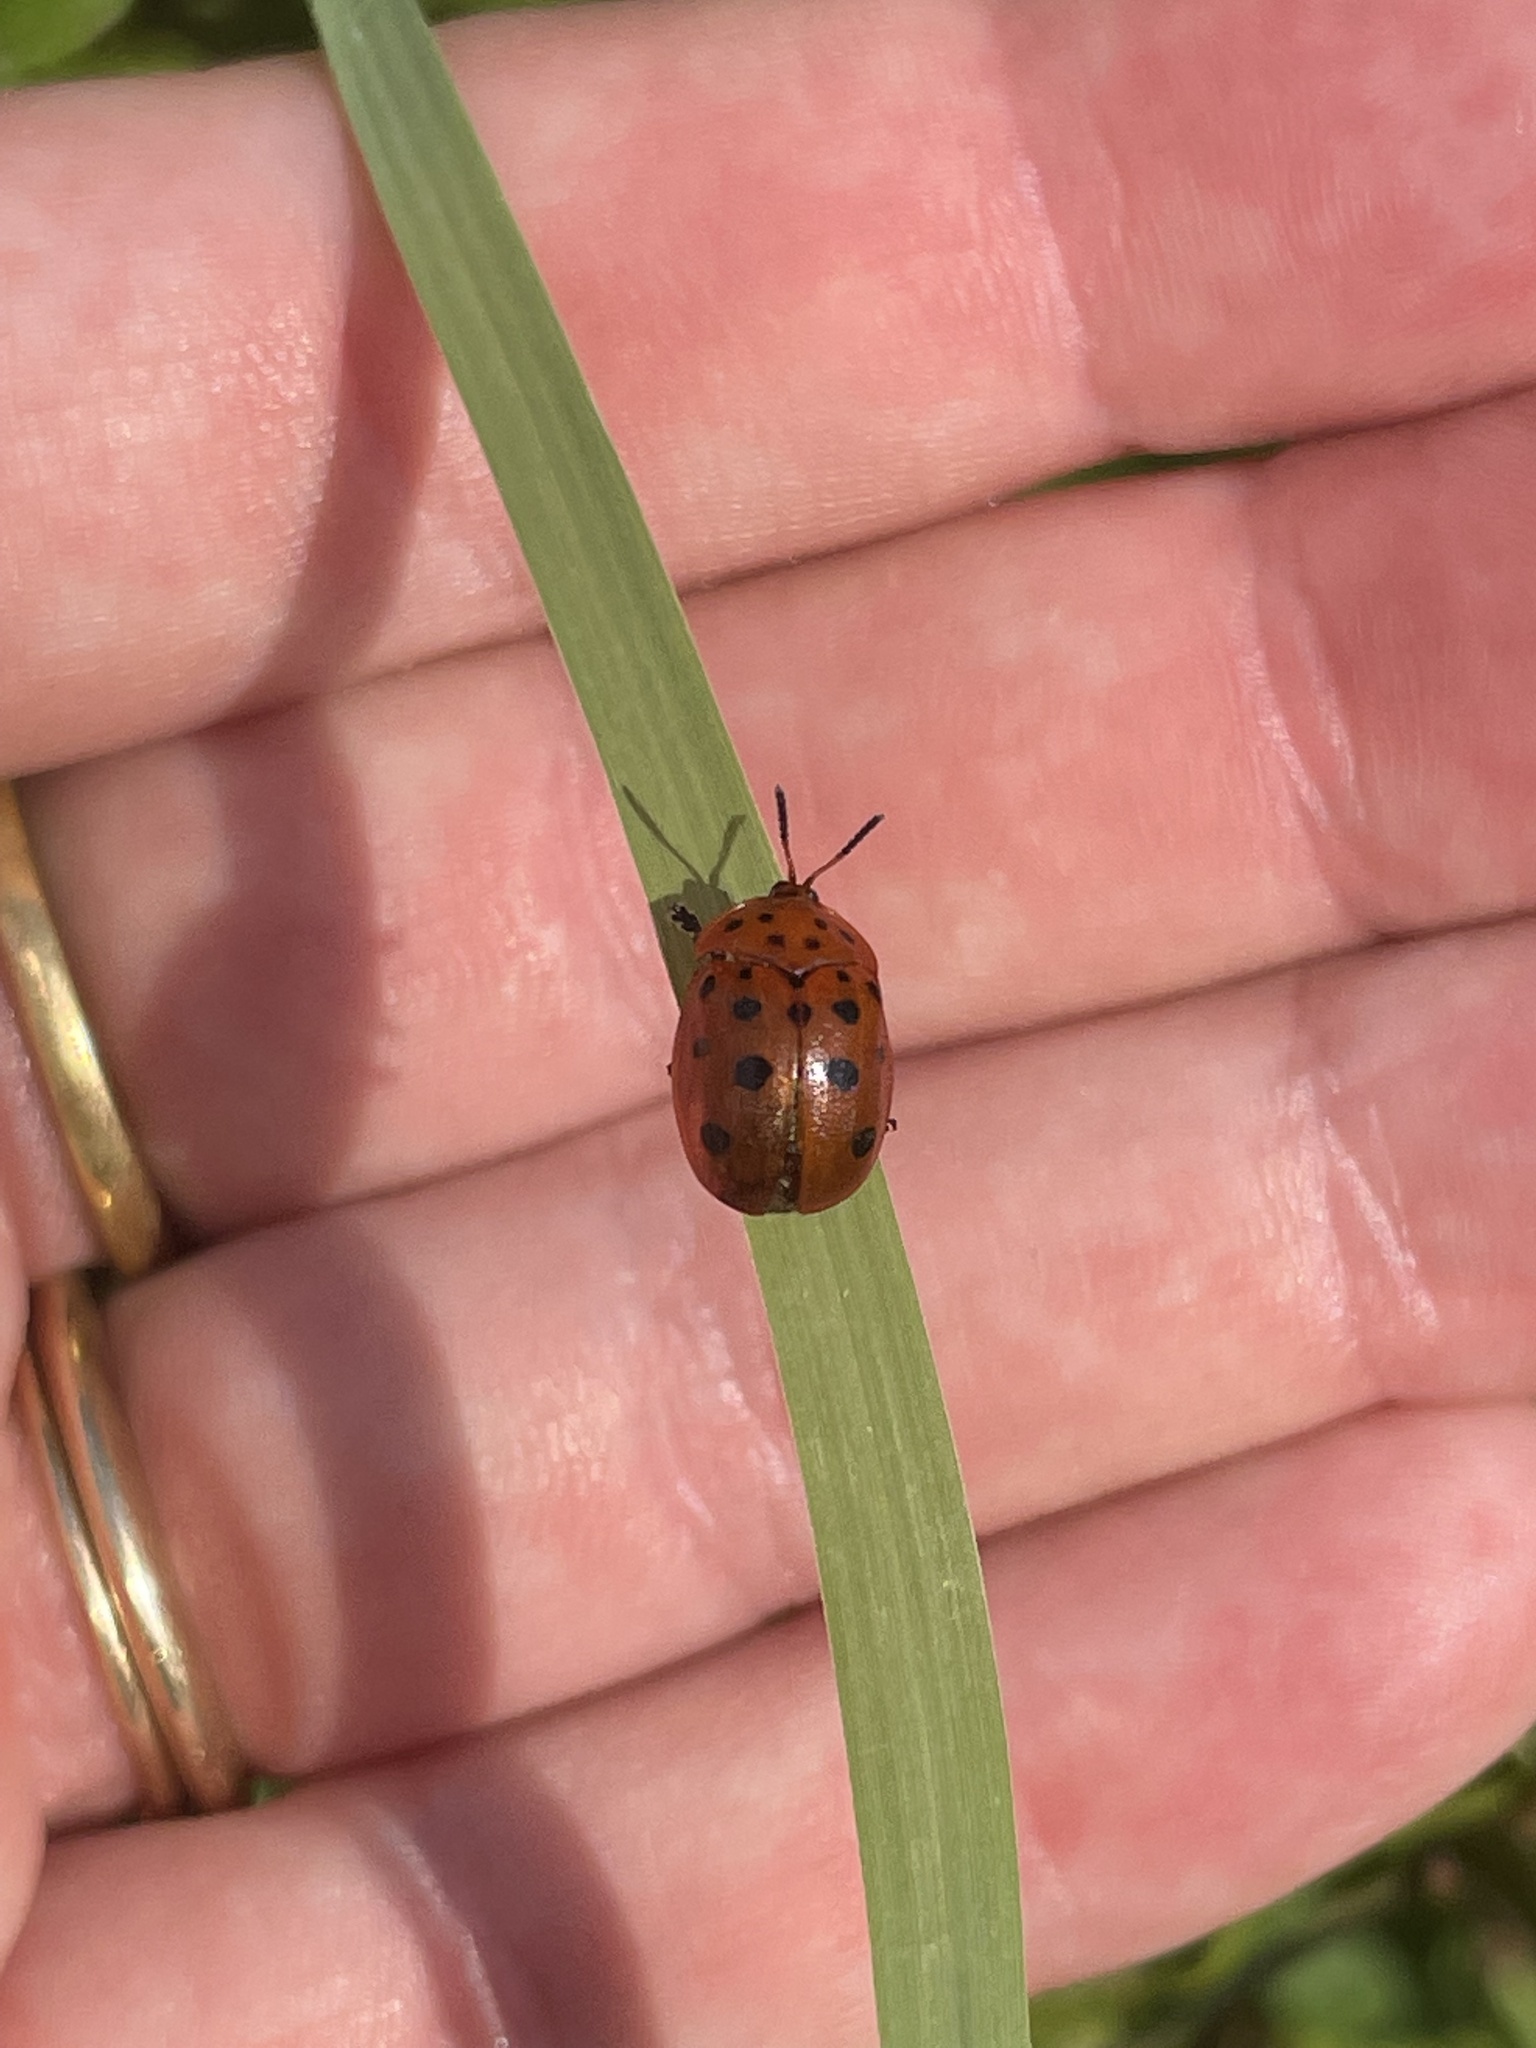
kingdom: Animalia
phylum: Arthropoda
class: Insecta
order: Coleoptera
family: Chrysomelidae
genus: Chelymorpha
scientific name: Chelymorpha cassidea
